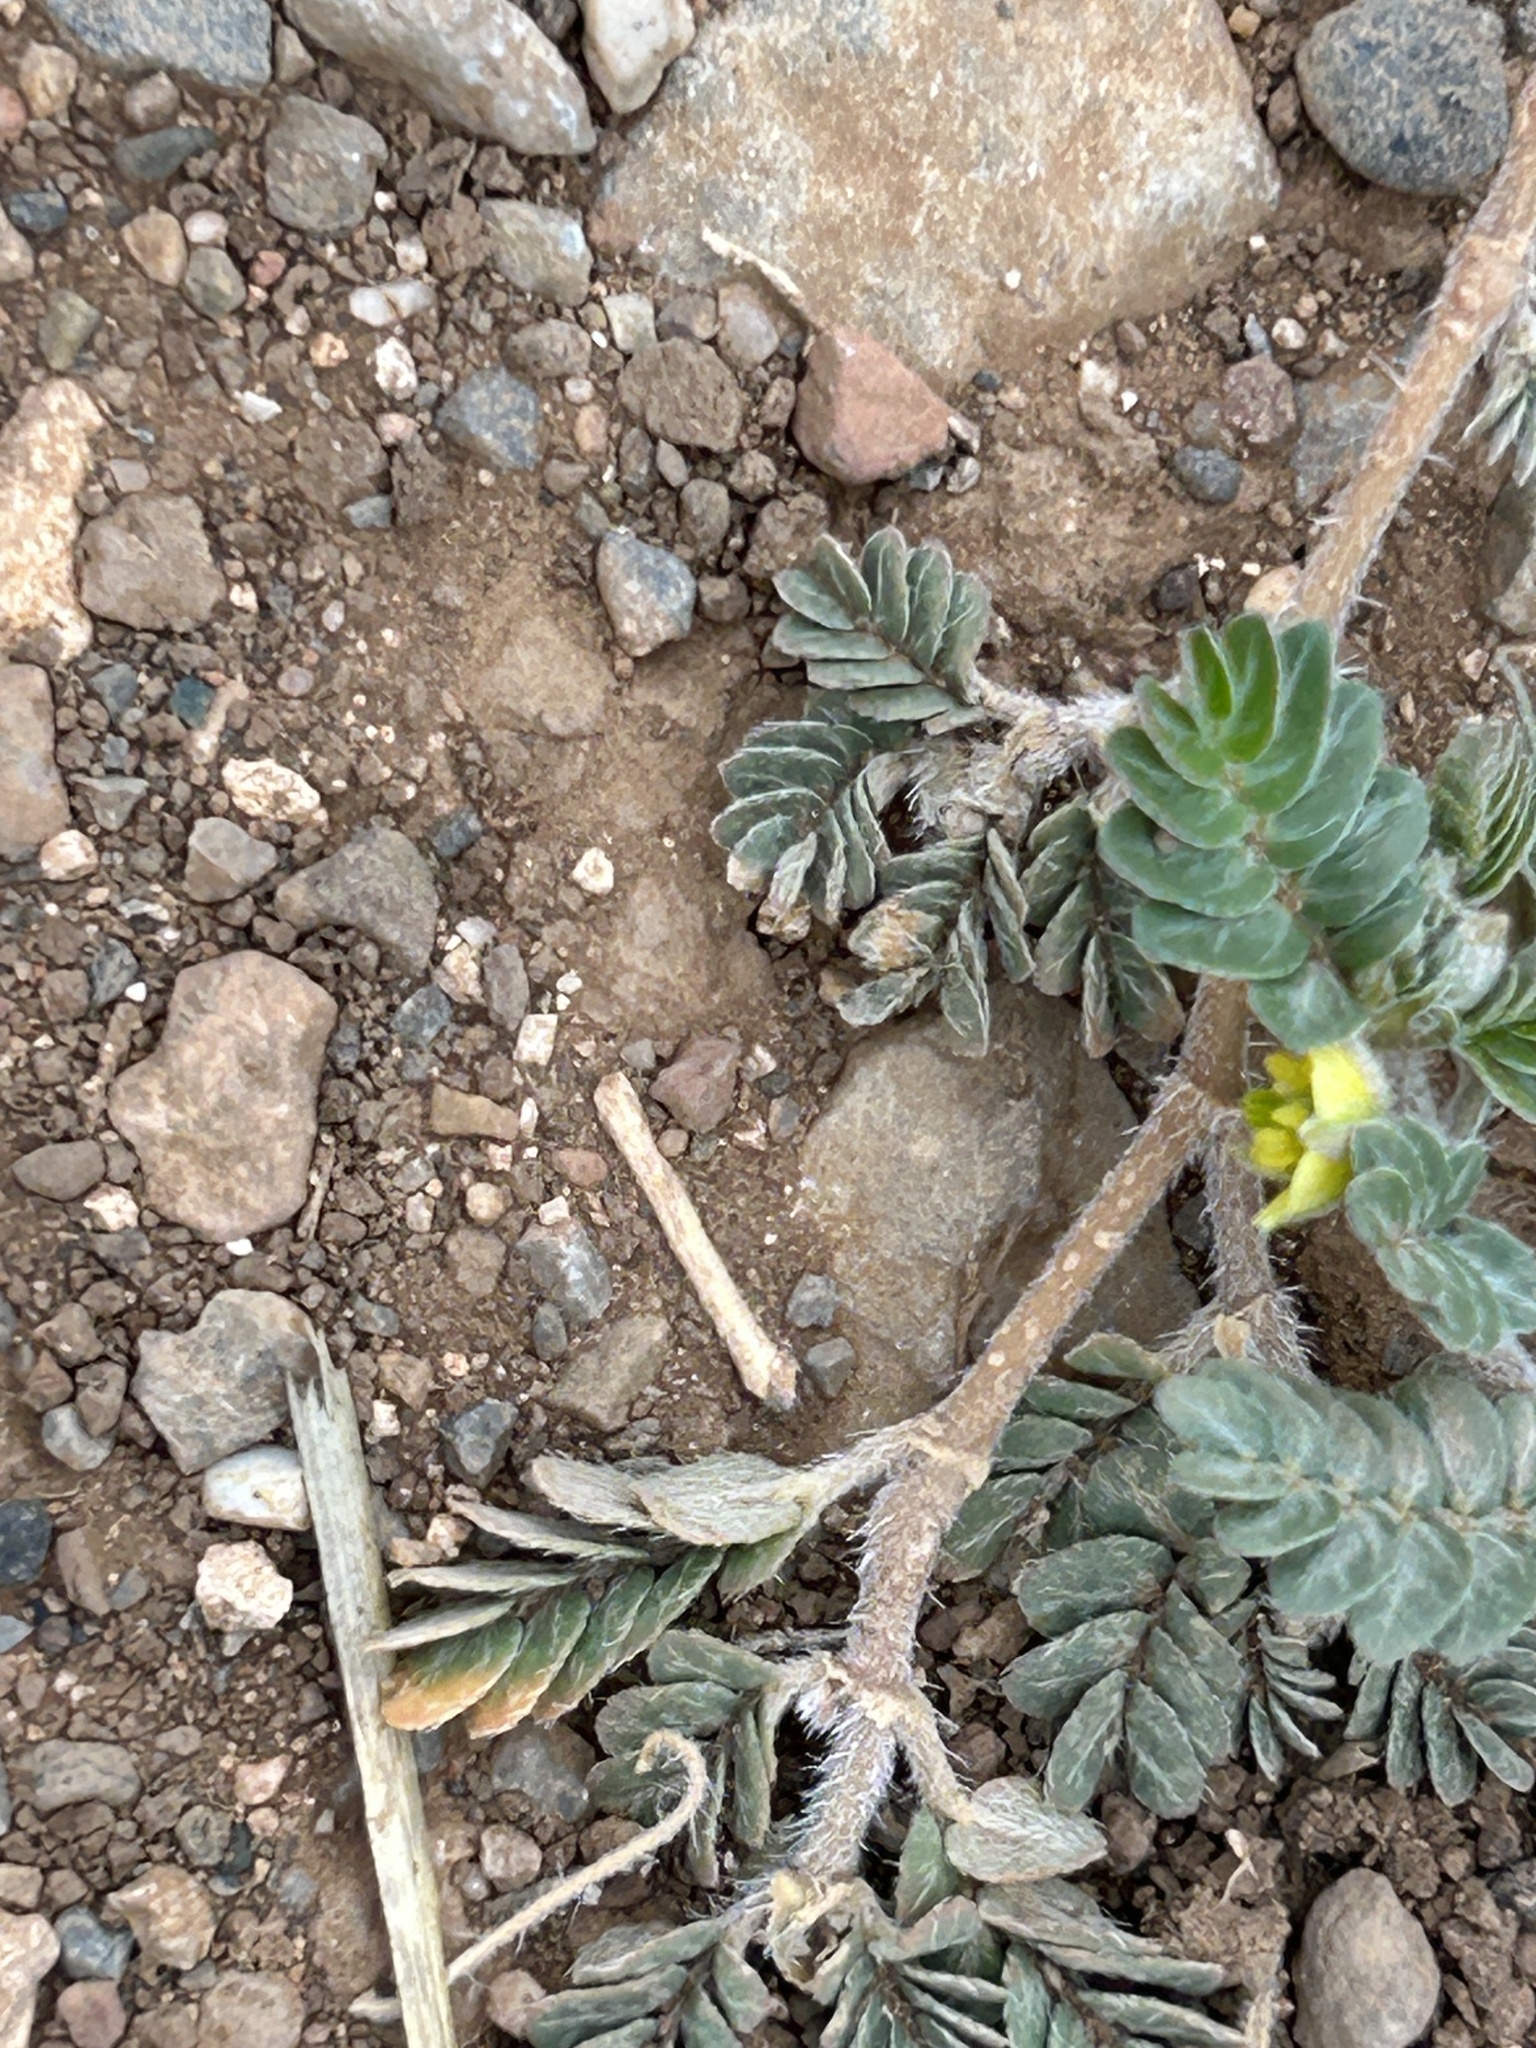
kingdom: Plantae
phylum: Tracheophyta
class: Magnoliopsida
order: Zygophyllales
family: Zygophyllaceae
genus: Tribulus
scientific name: Tribulus terrestris
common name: Puncturevine
